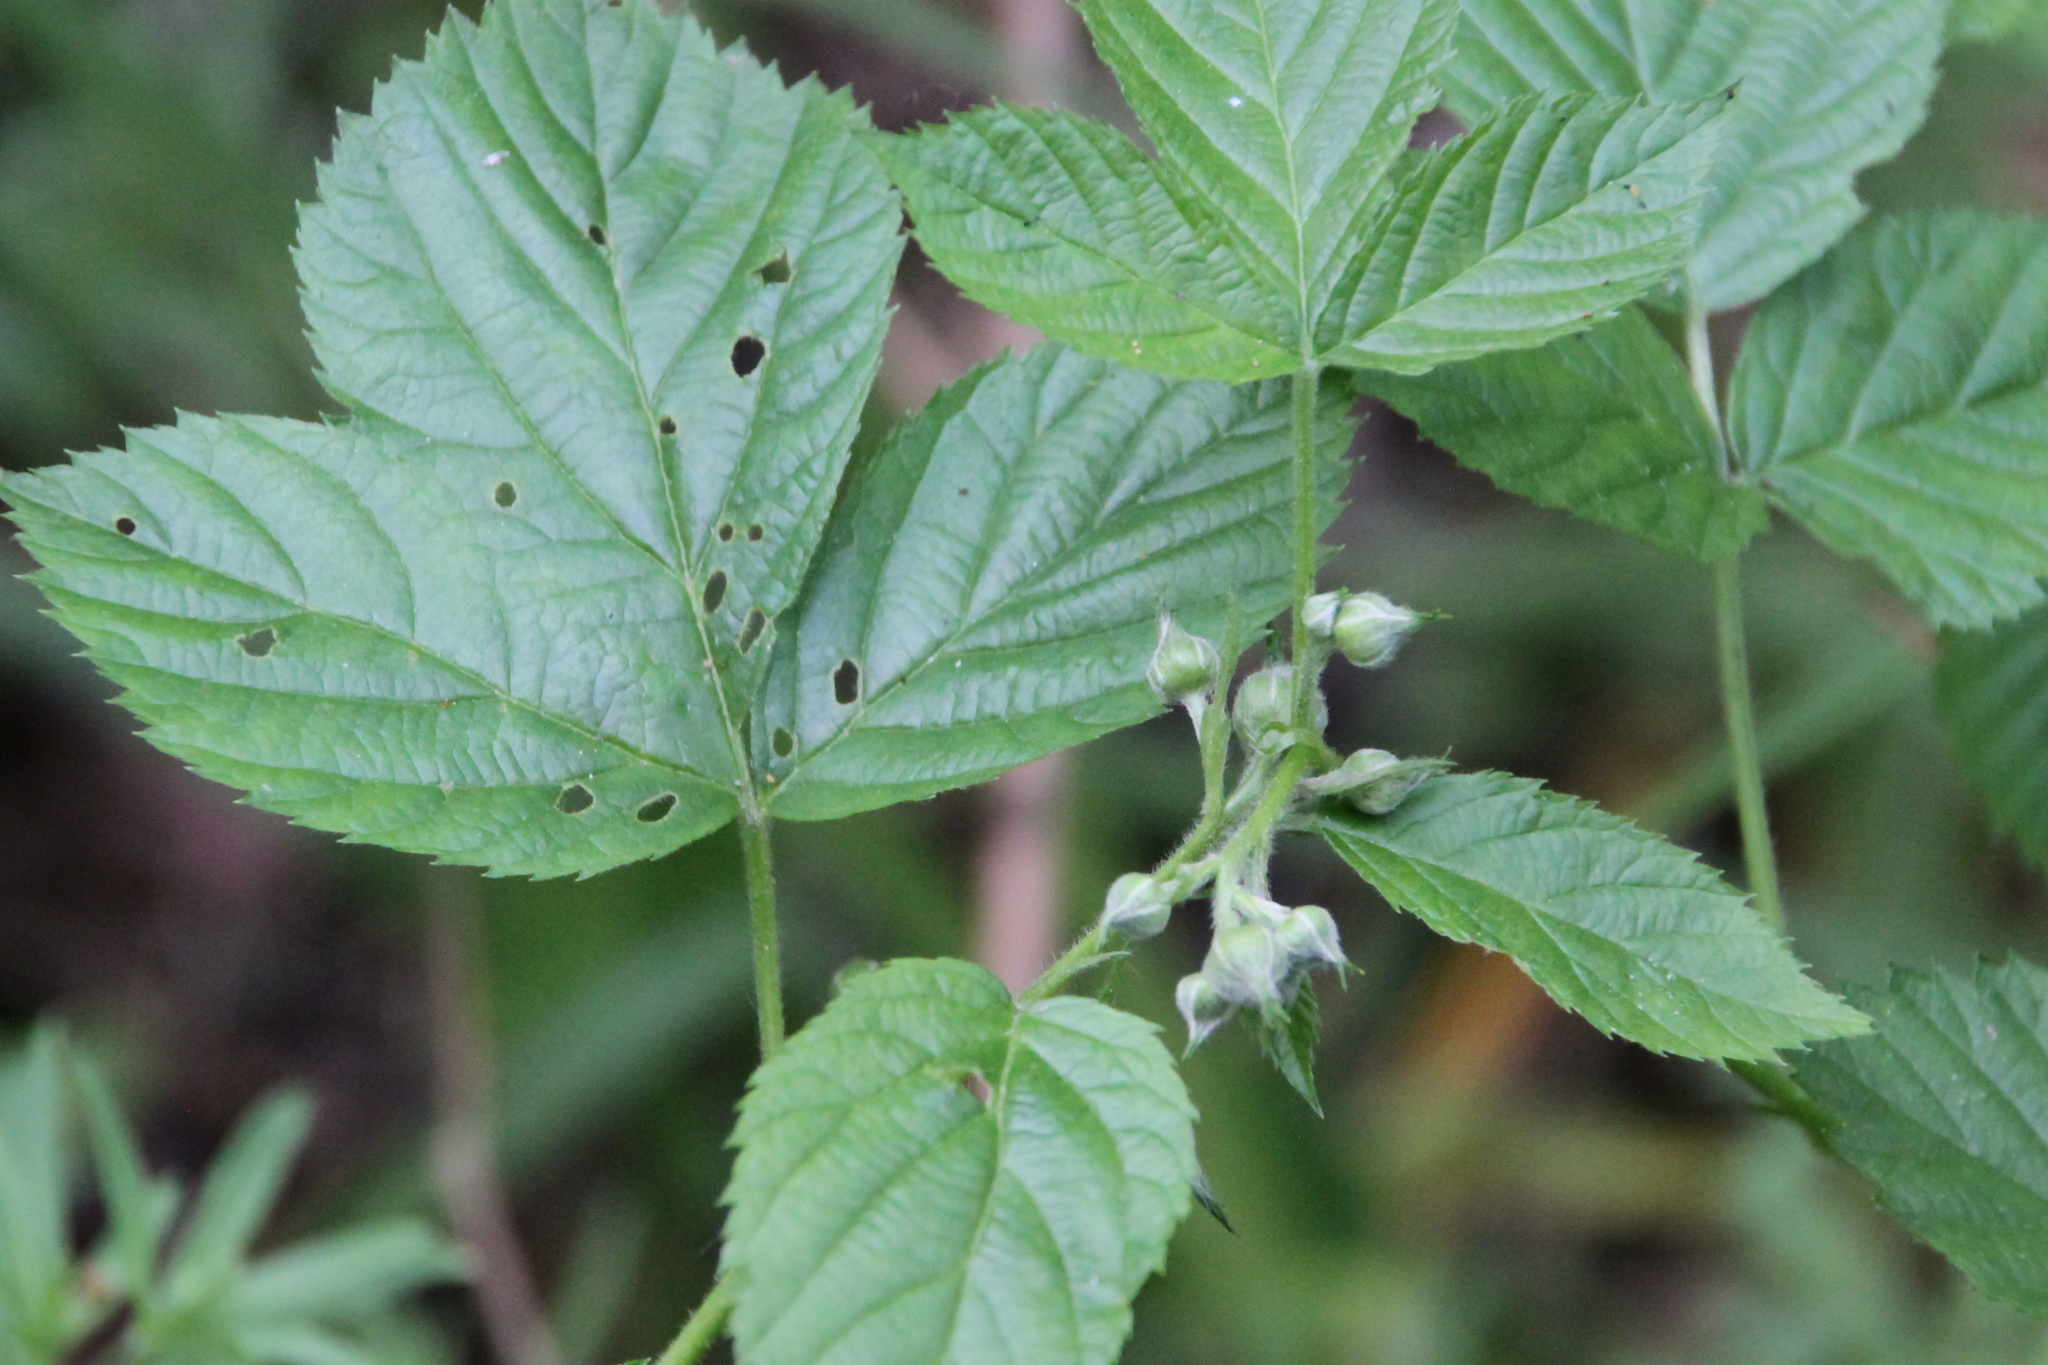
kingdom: Plantae
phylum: Tracheophyta
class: Magnoliopsida
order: Rosales
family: Rosaceae
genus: Rubus
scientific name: Rubus saxatilis
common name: Stone bramble
